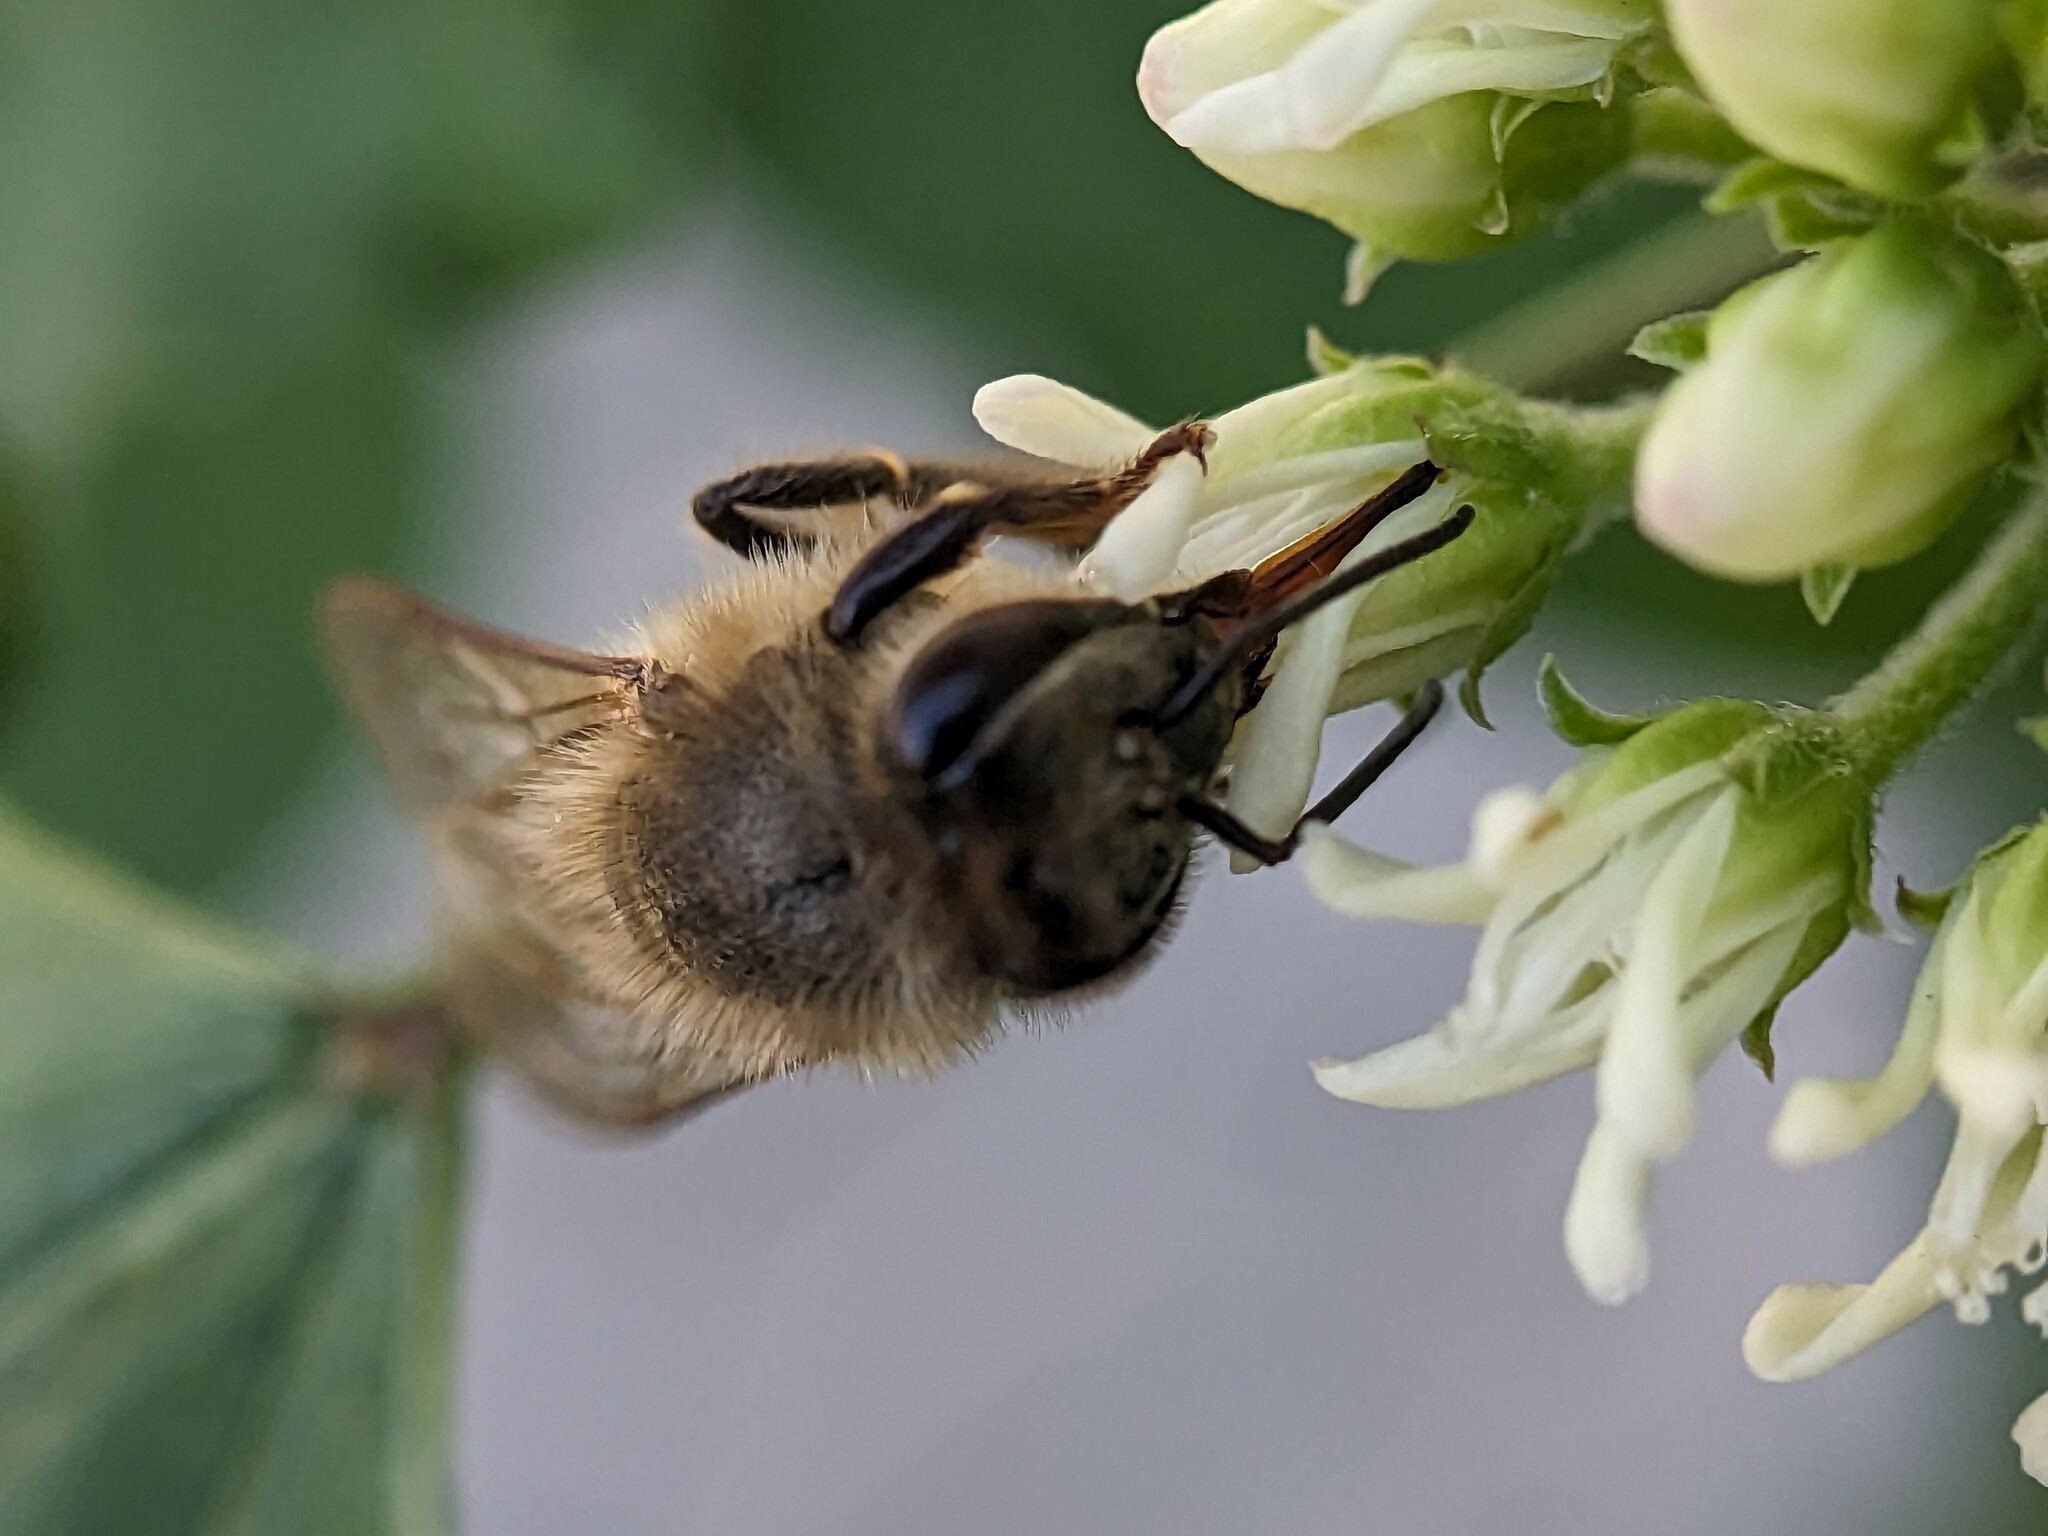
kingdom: Animalia
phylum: Arthropoda
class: Insecta
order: Hymenoptera
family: Apidae
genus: Apis
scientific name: Apis mellifera
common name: Honey bee
